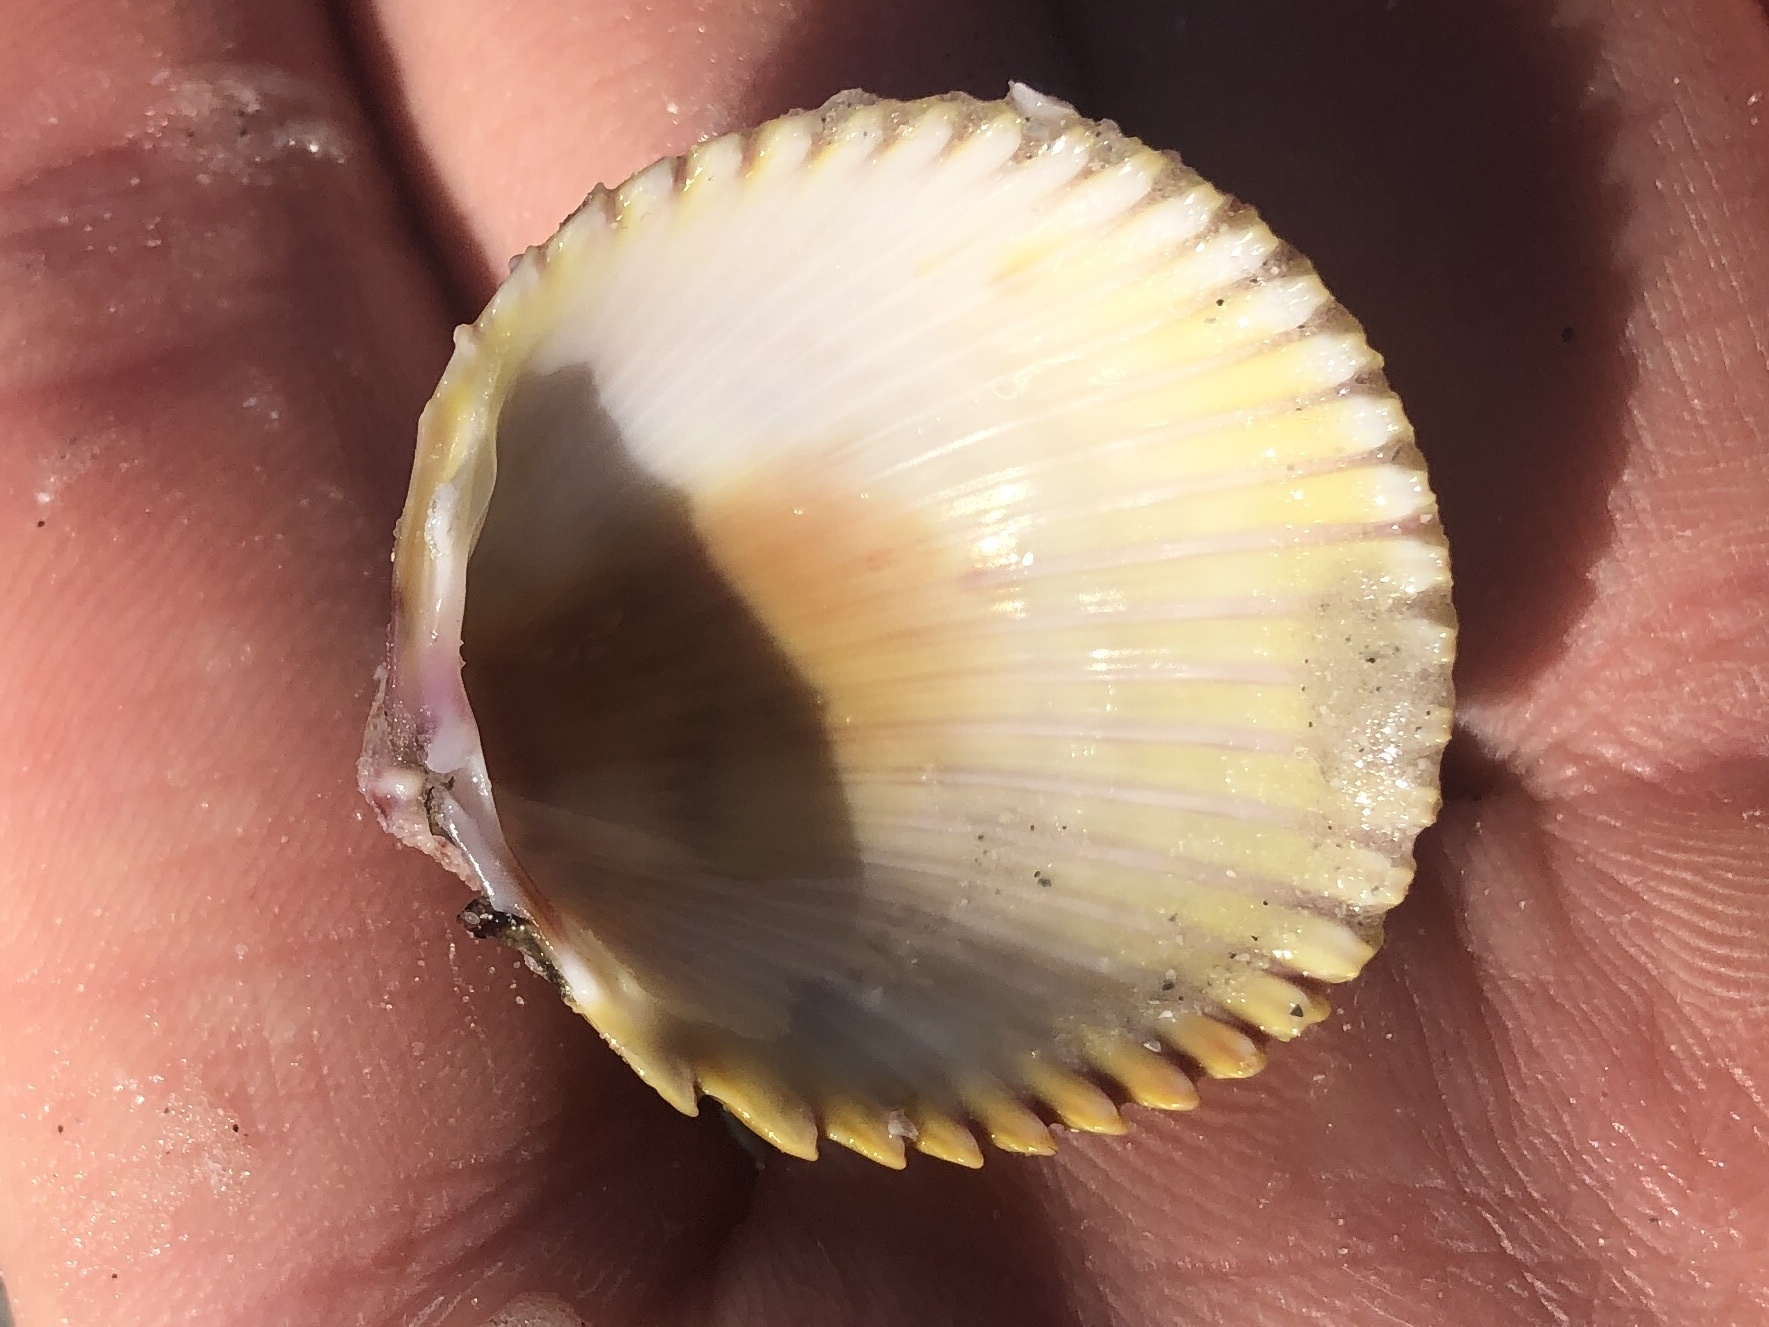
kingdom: Animalia
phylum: Mollusca
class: Bivalvia
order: Cardiida
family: Cardiidae
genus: Dallocardia
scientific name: Dallocardia muricata
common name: Yellow pricklycockle
